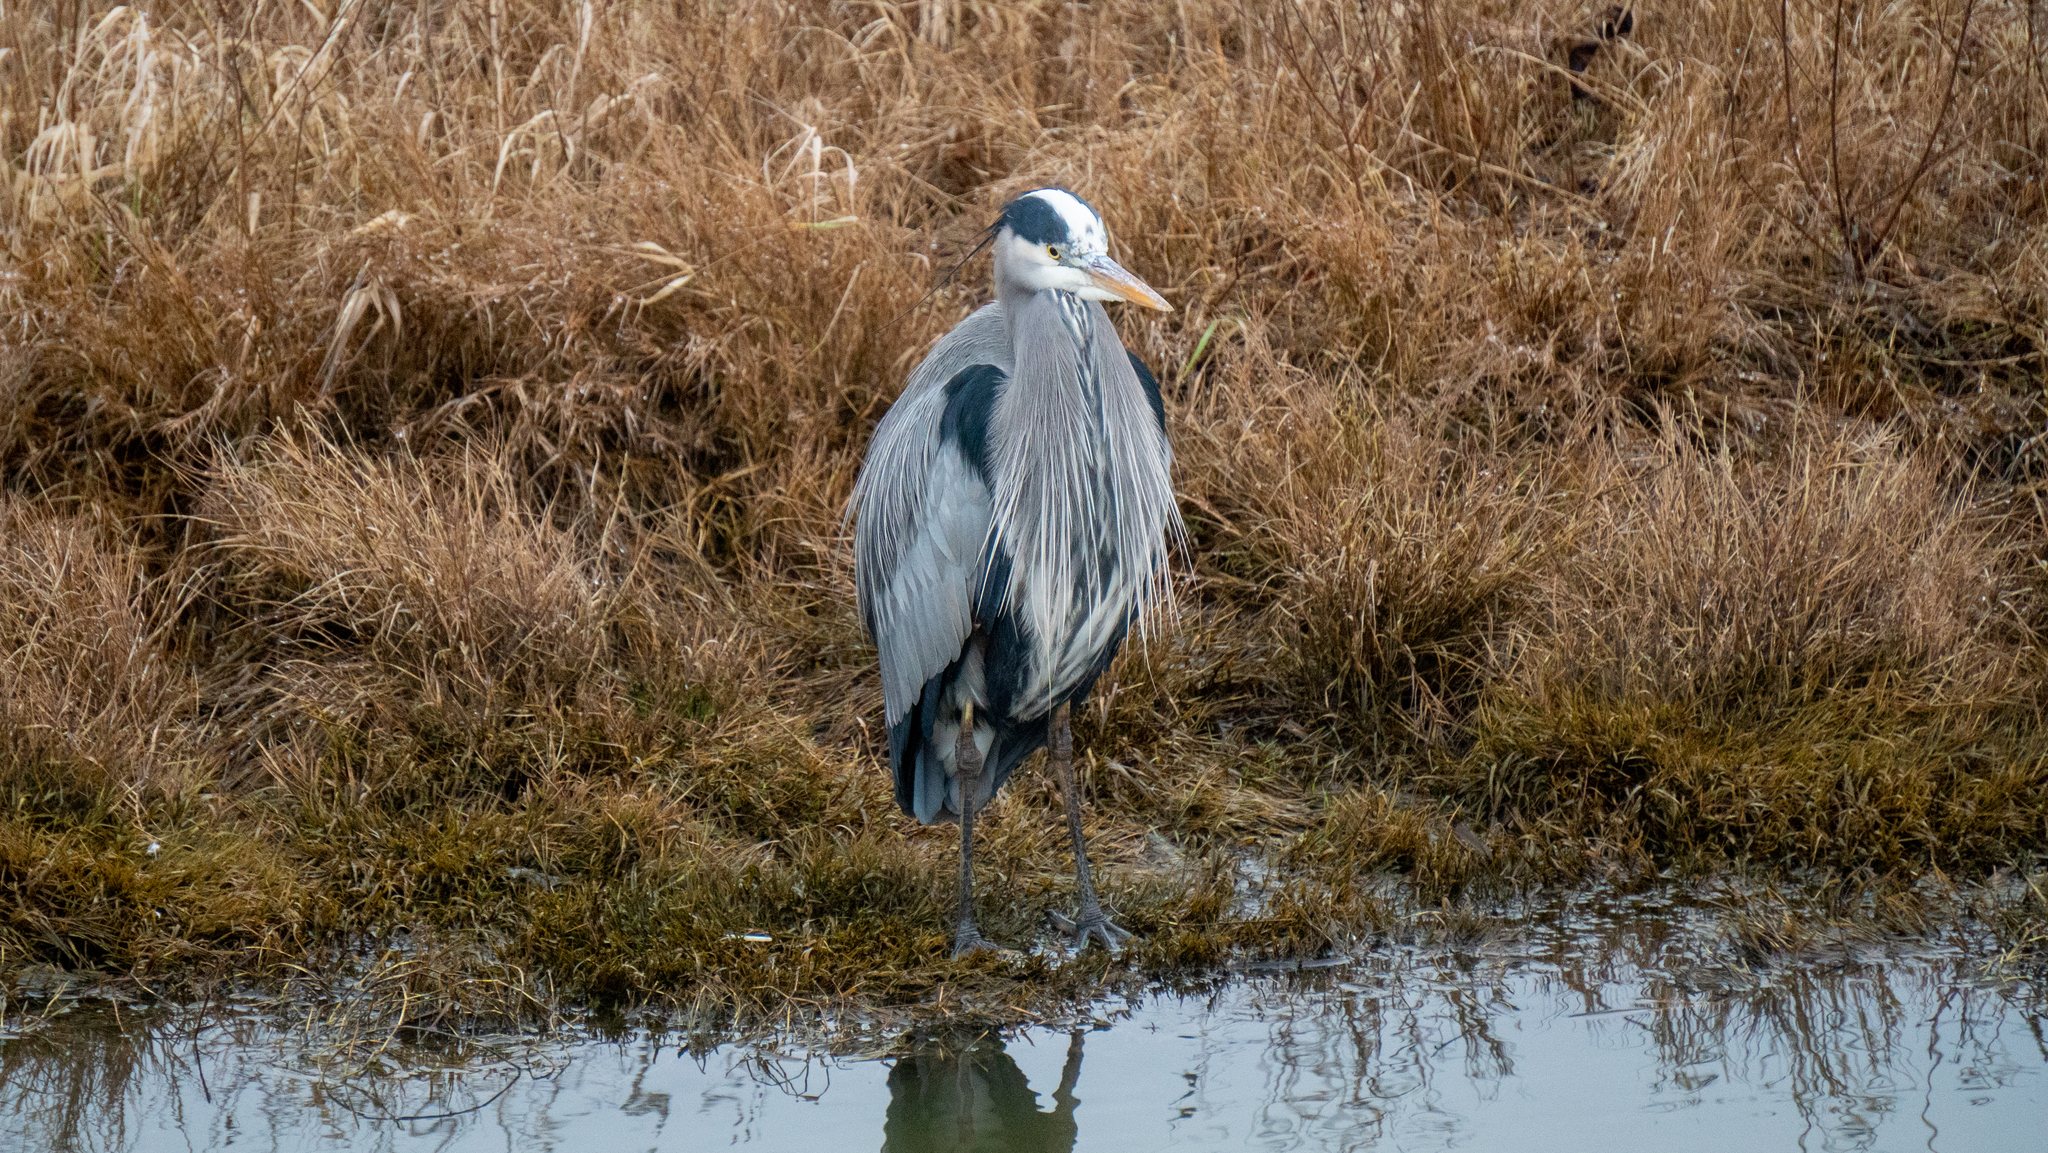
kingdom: Animalia
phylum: Chordata
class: Aves
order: Pelecaniformes
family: Ardeidae
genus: Ardea
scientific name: Ardea herodias
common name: Great blue heron
